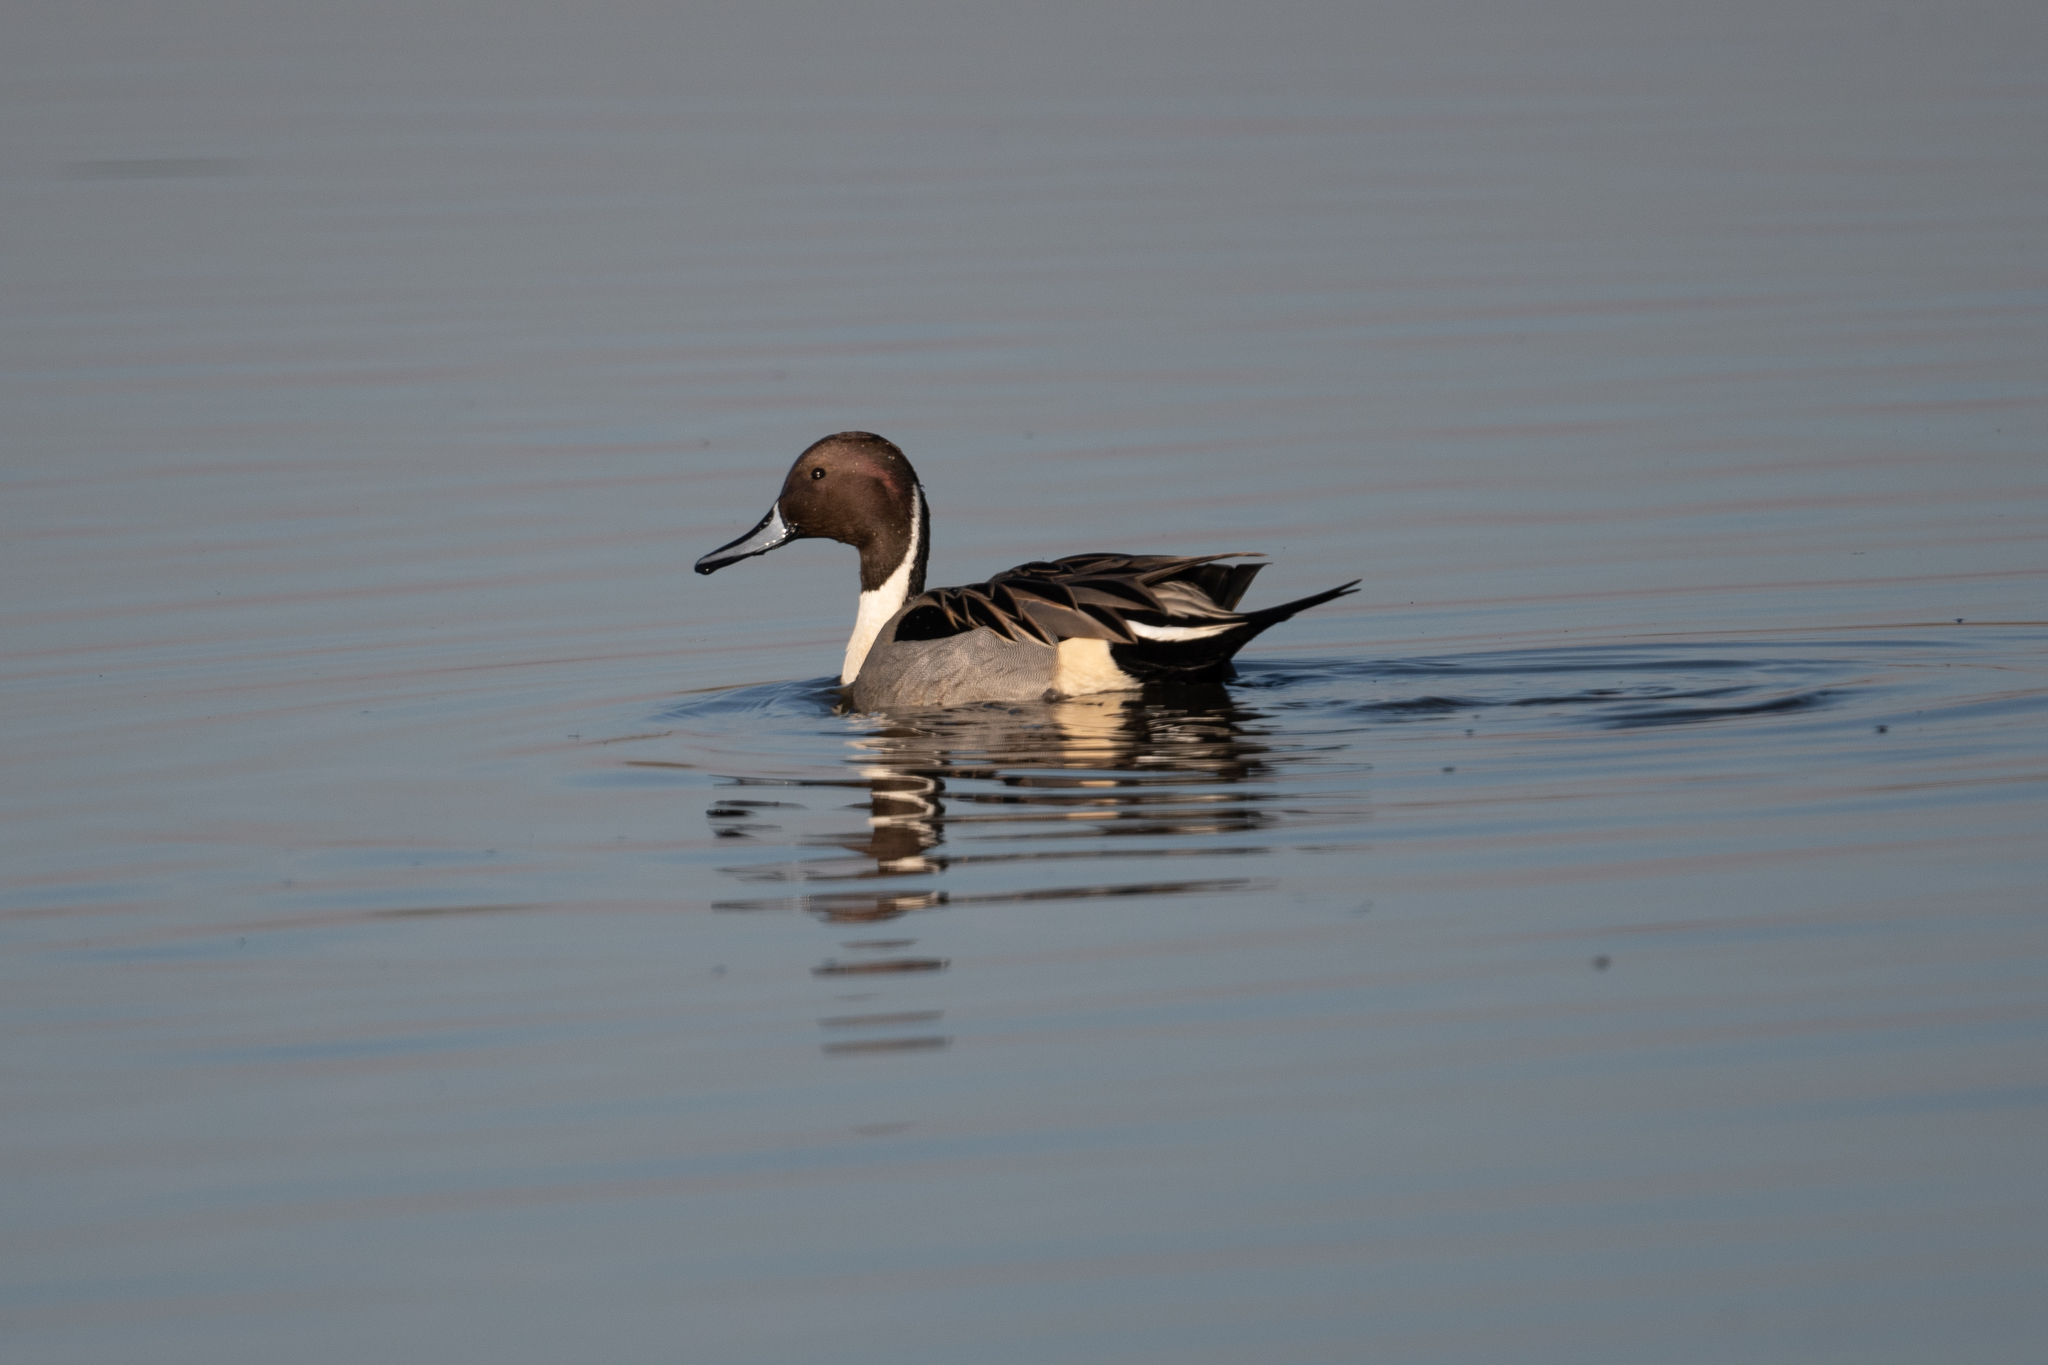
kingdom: Animalia
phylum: Chordata
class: Aves
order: Anseriformes
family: Anatidae
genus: Anas
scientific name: Anas acuta
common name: Northern pintail
